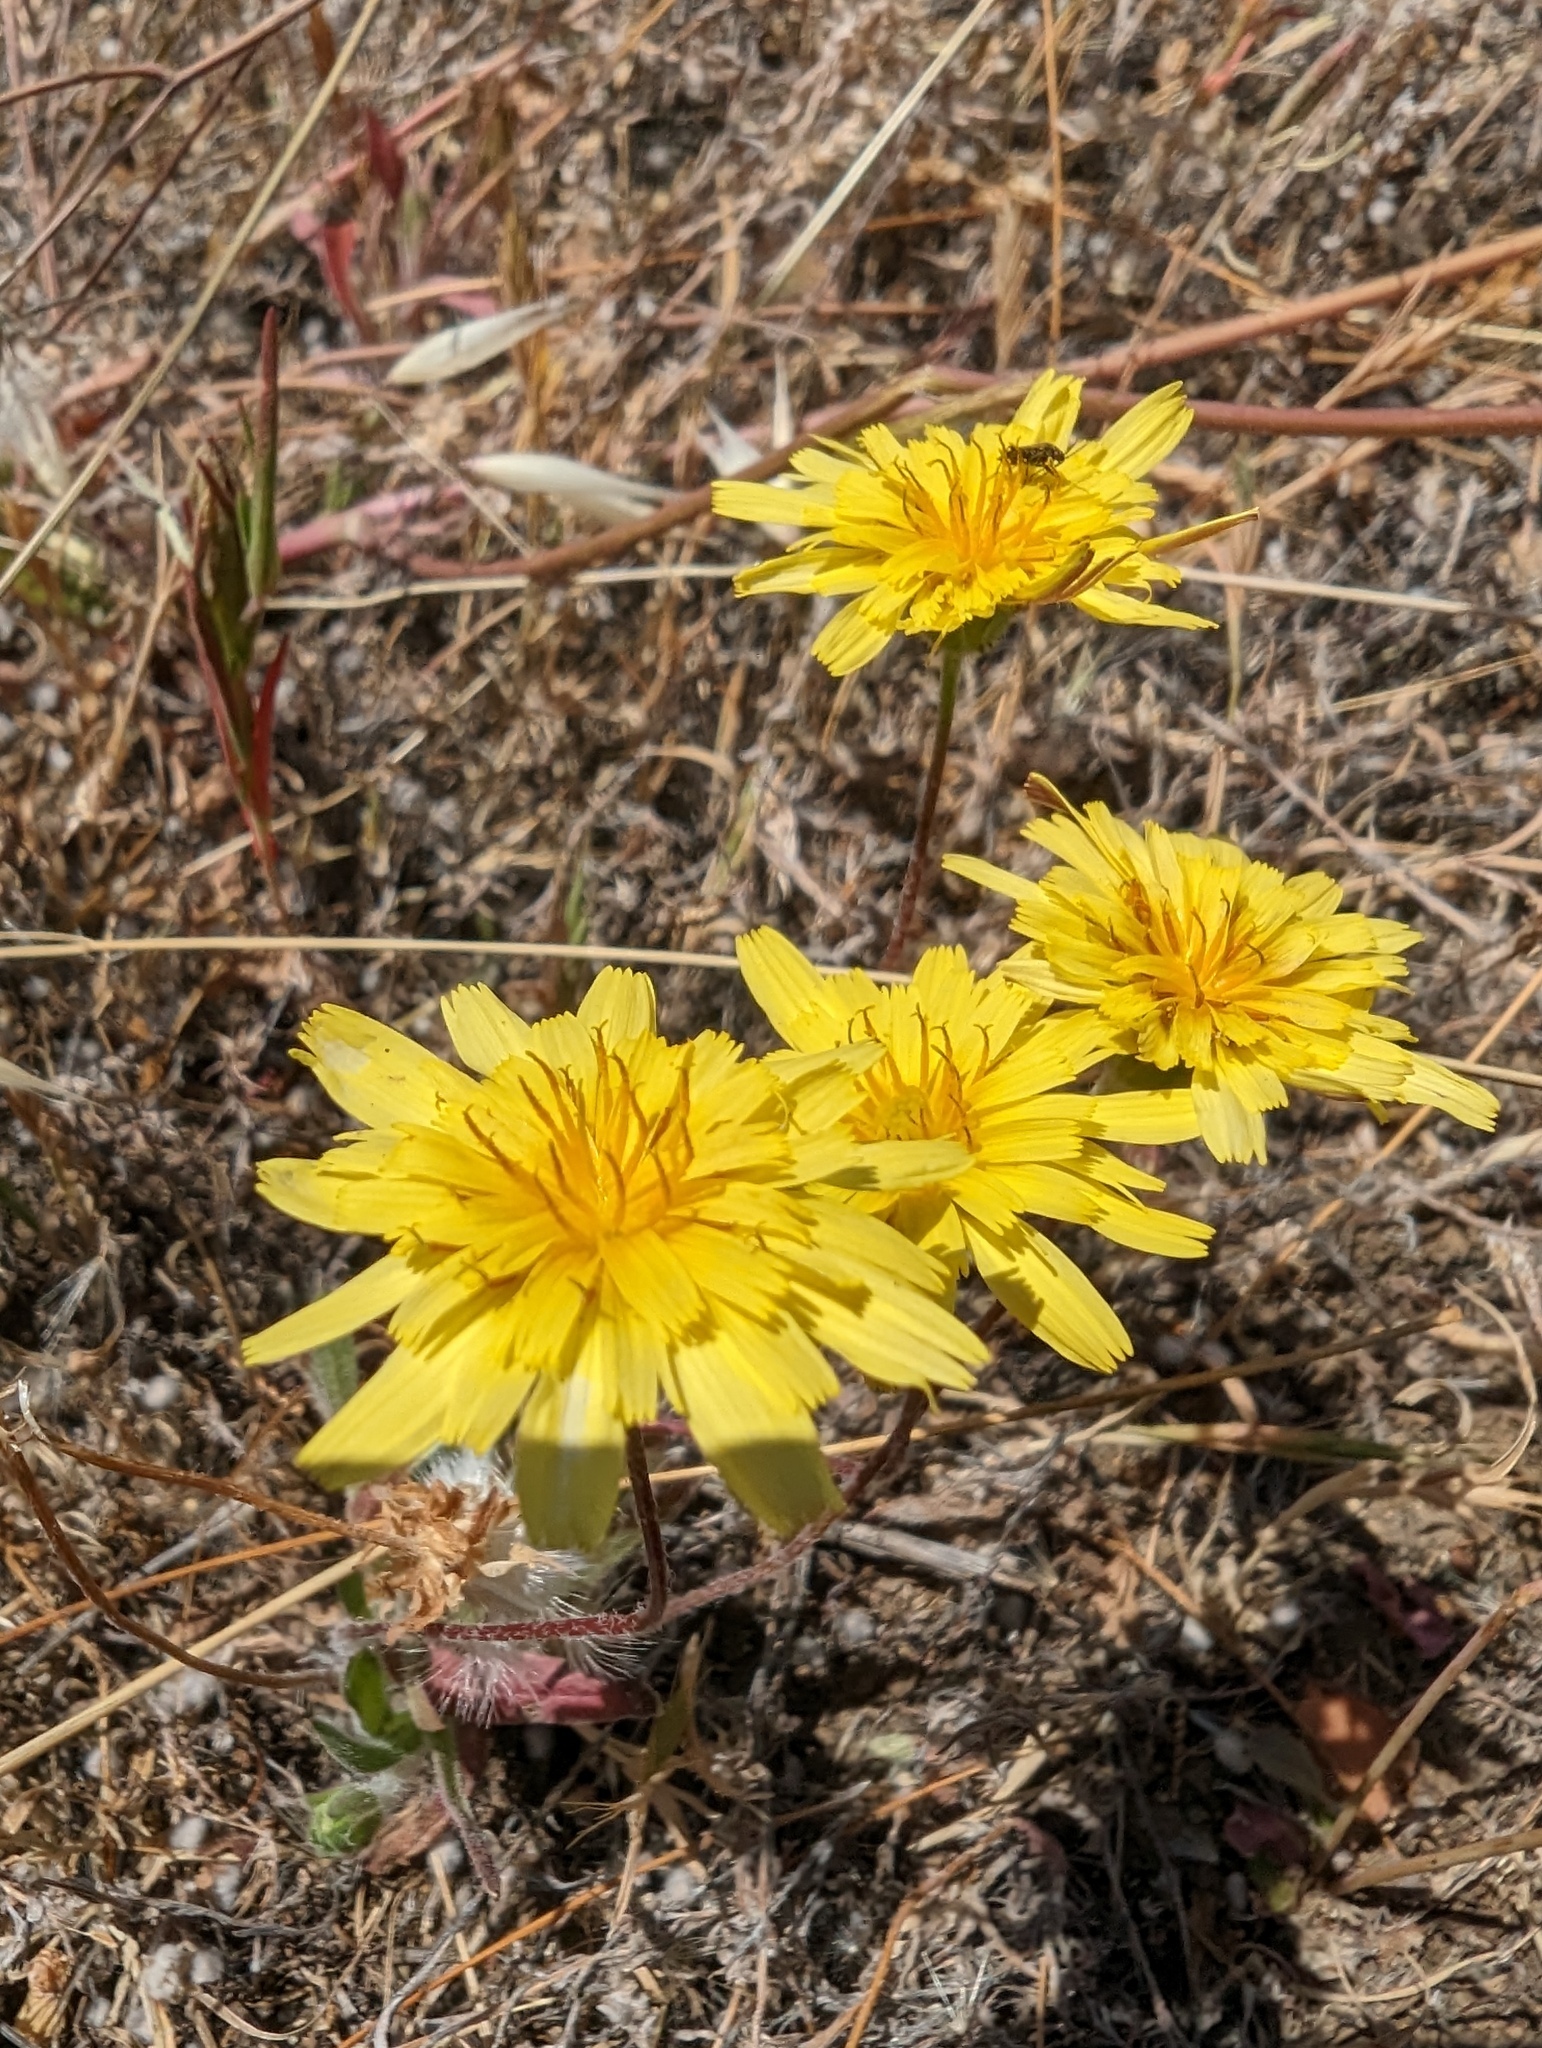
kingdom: Plantae
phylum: Tracheophyta
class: Magnoliopsida
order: Asterales
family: Asteraceae
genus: Agoseris
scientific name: Agoseris heterophylla
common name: Annual agoseris
